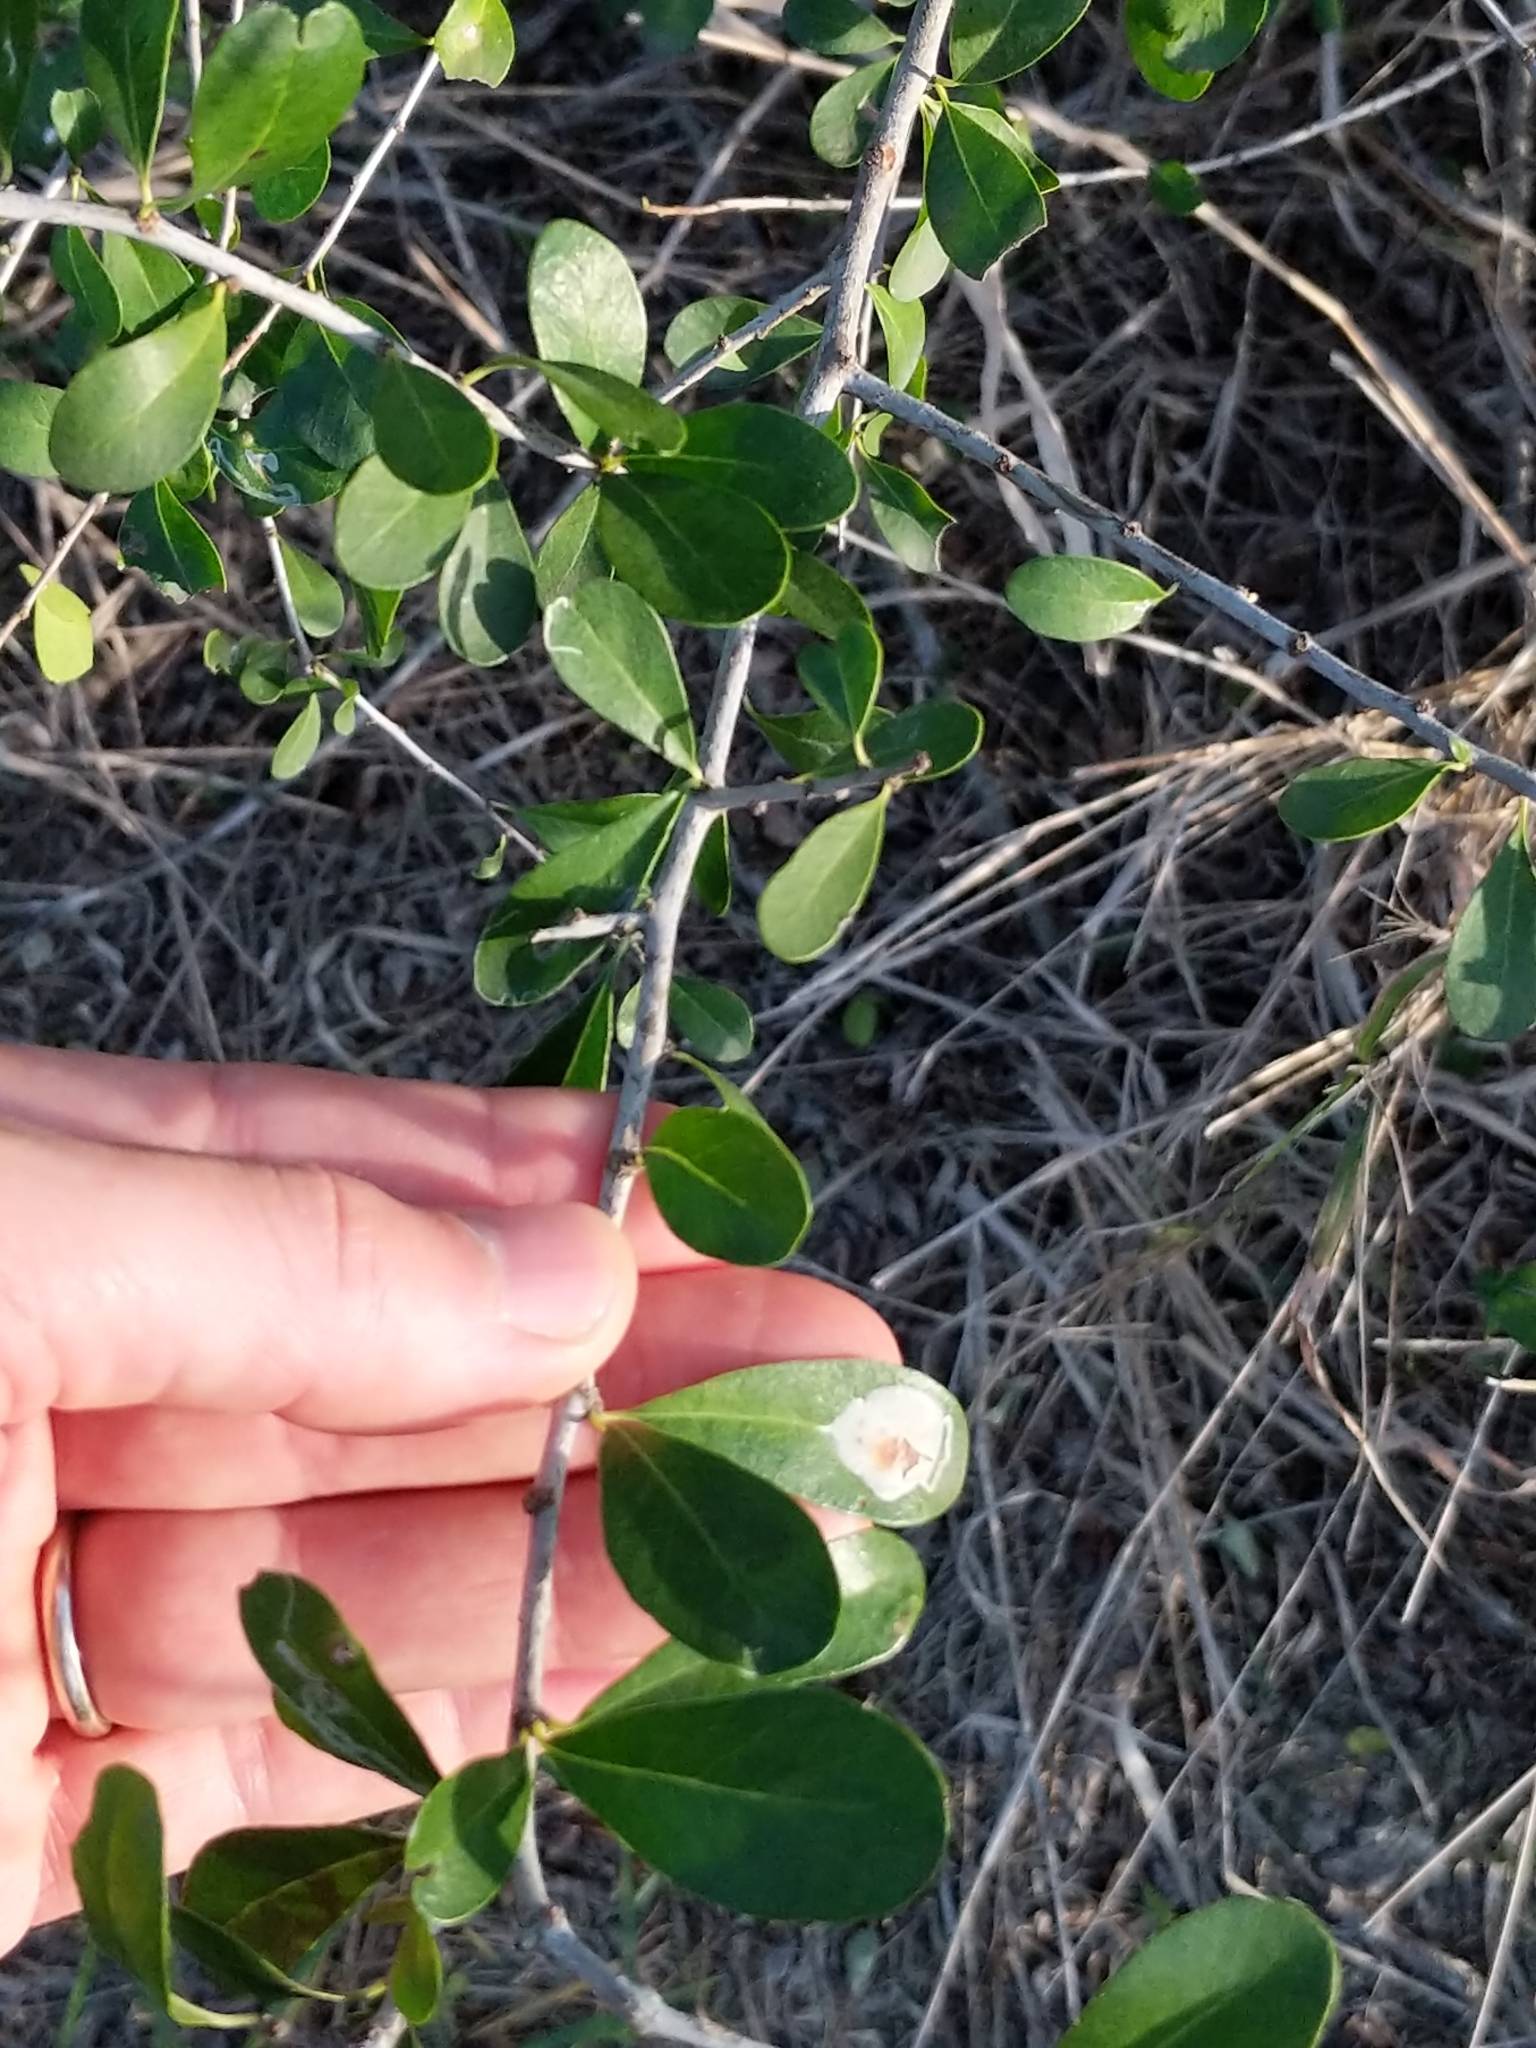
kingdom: Plantae
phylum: Tracheophyta
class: Magnoliopsida
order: Ericales
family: Sapotaceae
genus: Sideroxylon
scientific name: Sideroxylon celastrinum
